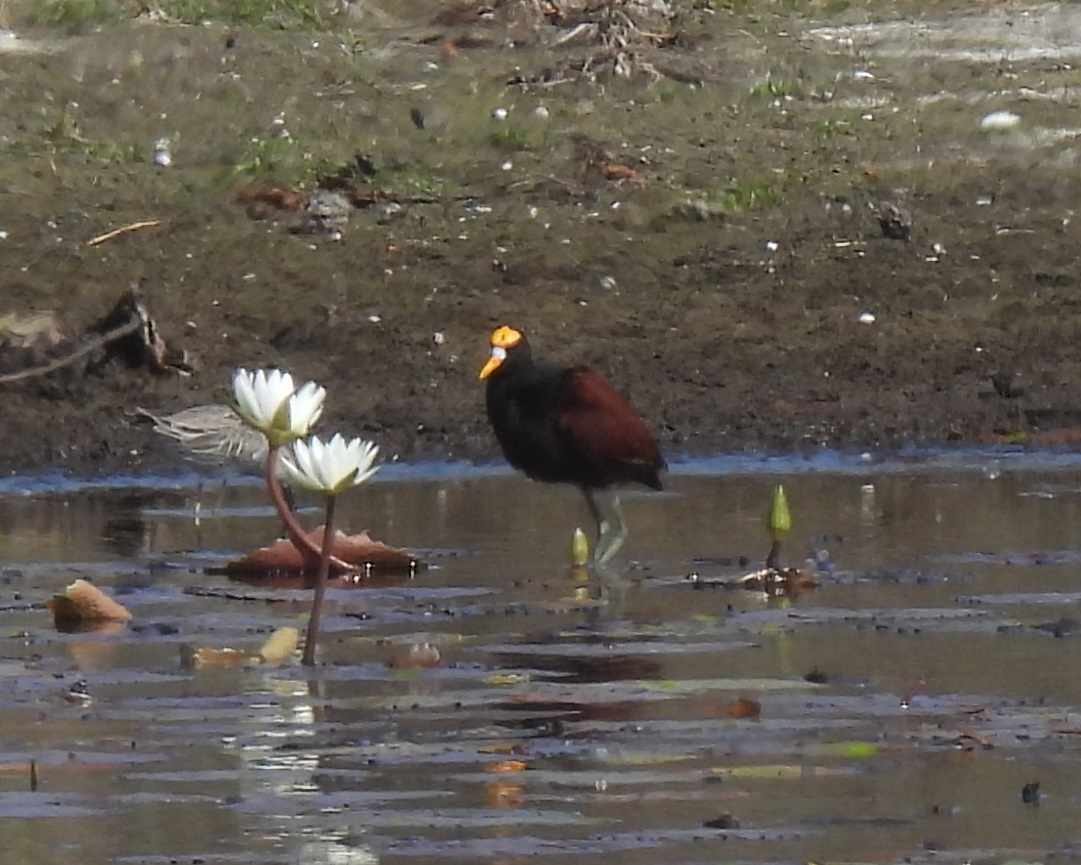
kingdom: Animalia
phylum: Chordata
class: Aves
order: Charadriiformes
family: Jacanidae
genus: Jacana
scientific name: Jacana spinosa
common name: Northern jacana
